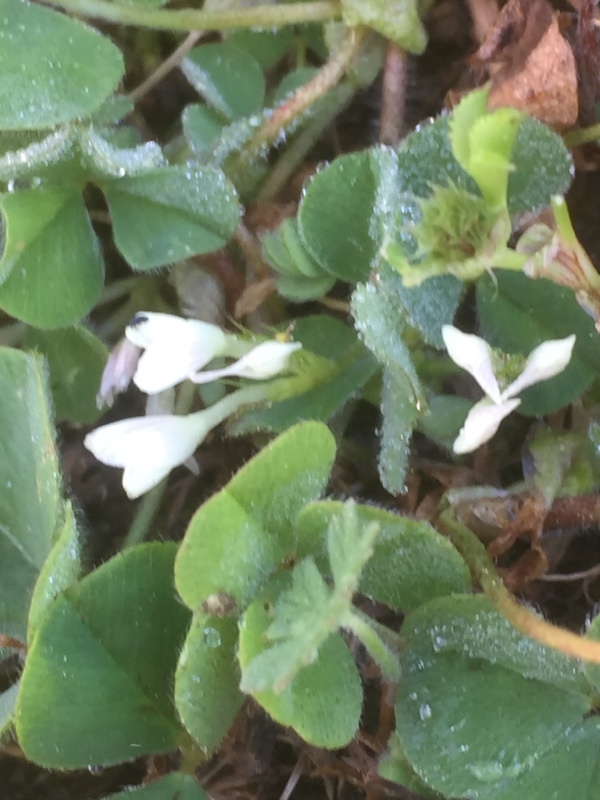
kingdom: Plantae
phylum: Tracheophyta
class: Magnoliopsida
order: Fabales
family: Fabaceae
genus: Trifolium
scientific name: Trifolium subterraneum
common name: Subterranean clover
